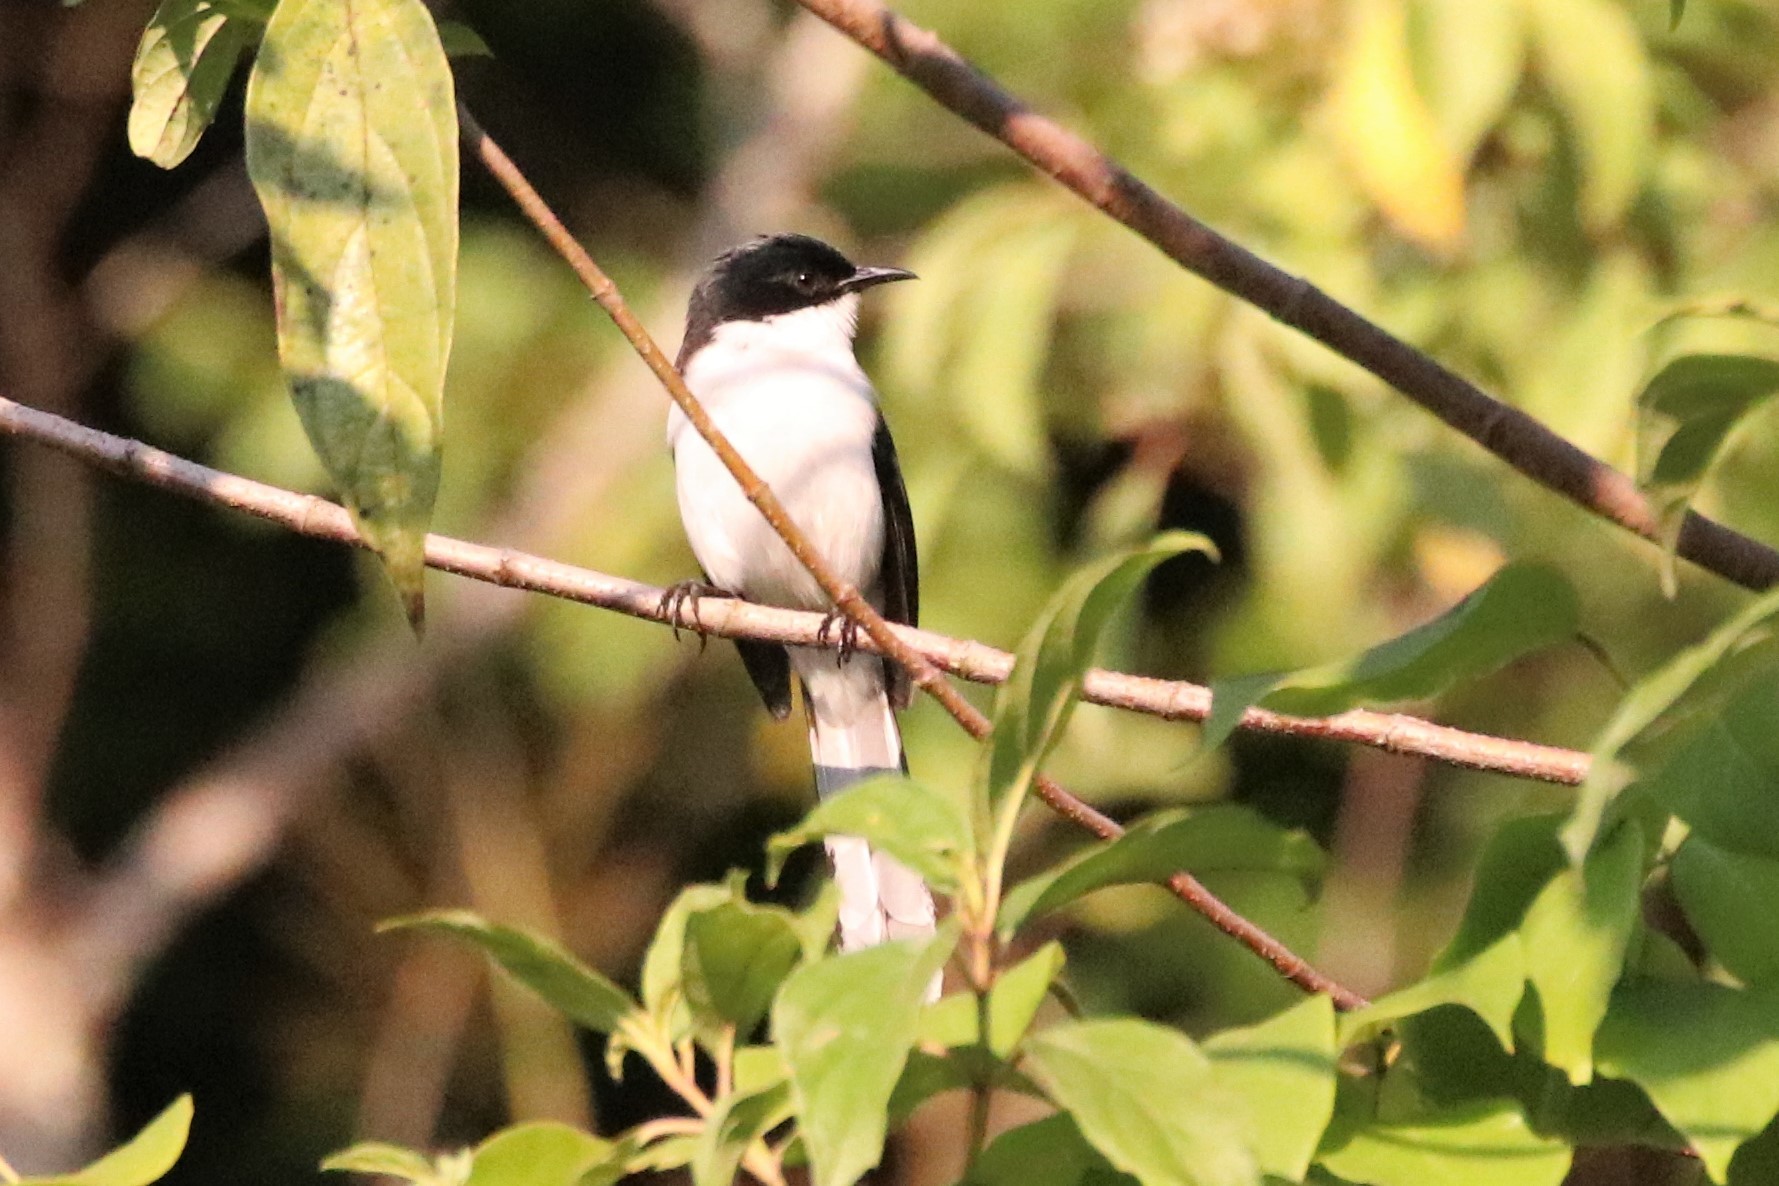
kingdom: Animalia
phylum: Chordata
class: Aves
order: Passeriformes
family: Leiothrichidae
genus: Heterophasia
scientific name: Heterophasia melanoleuca
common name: Dark-backed sibia
